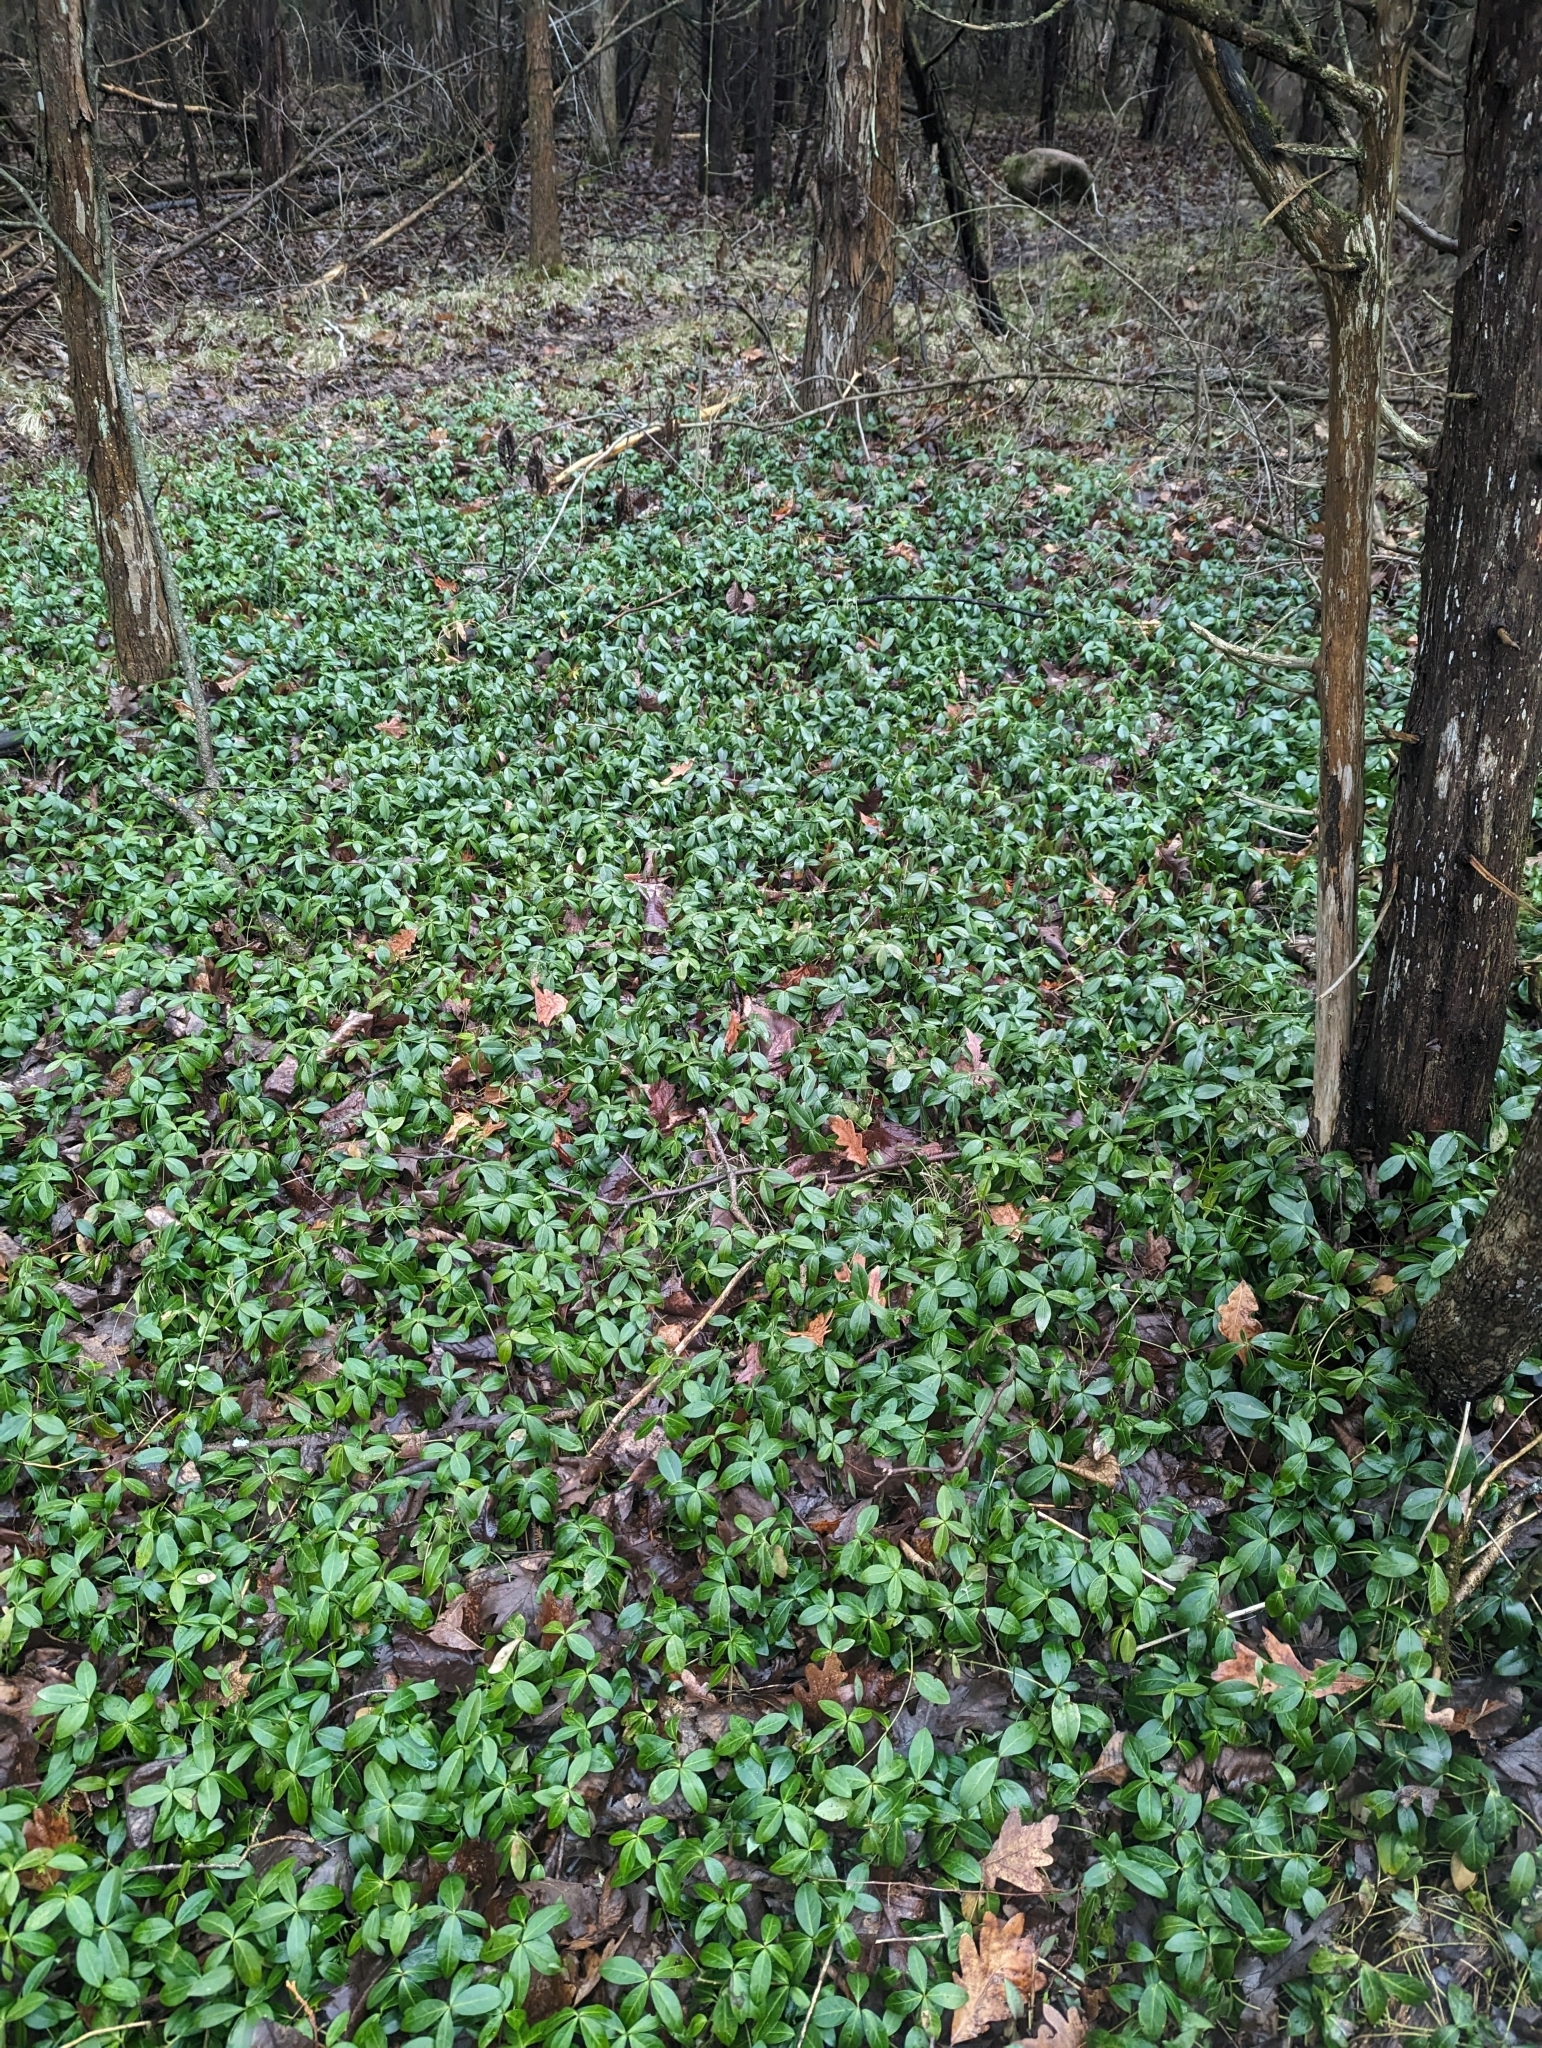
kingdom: Plantae
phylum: Tracheophyta
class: Magnoliopsida
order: Gentianales
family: Apocynaceae
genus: Vinca
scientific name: Vinca minor
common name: Lesser periwinkle
